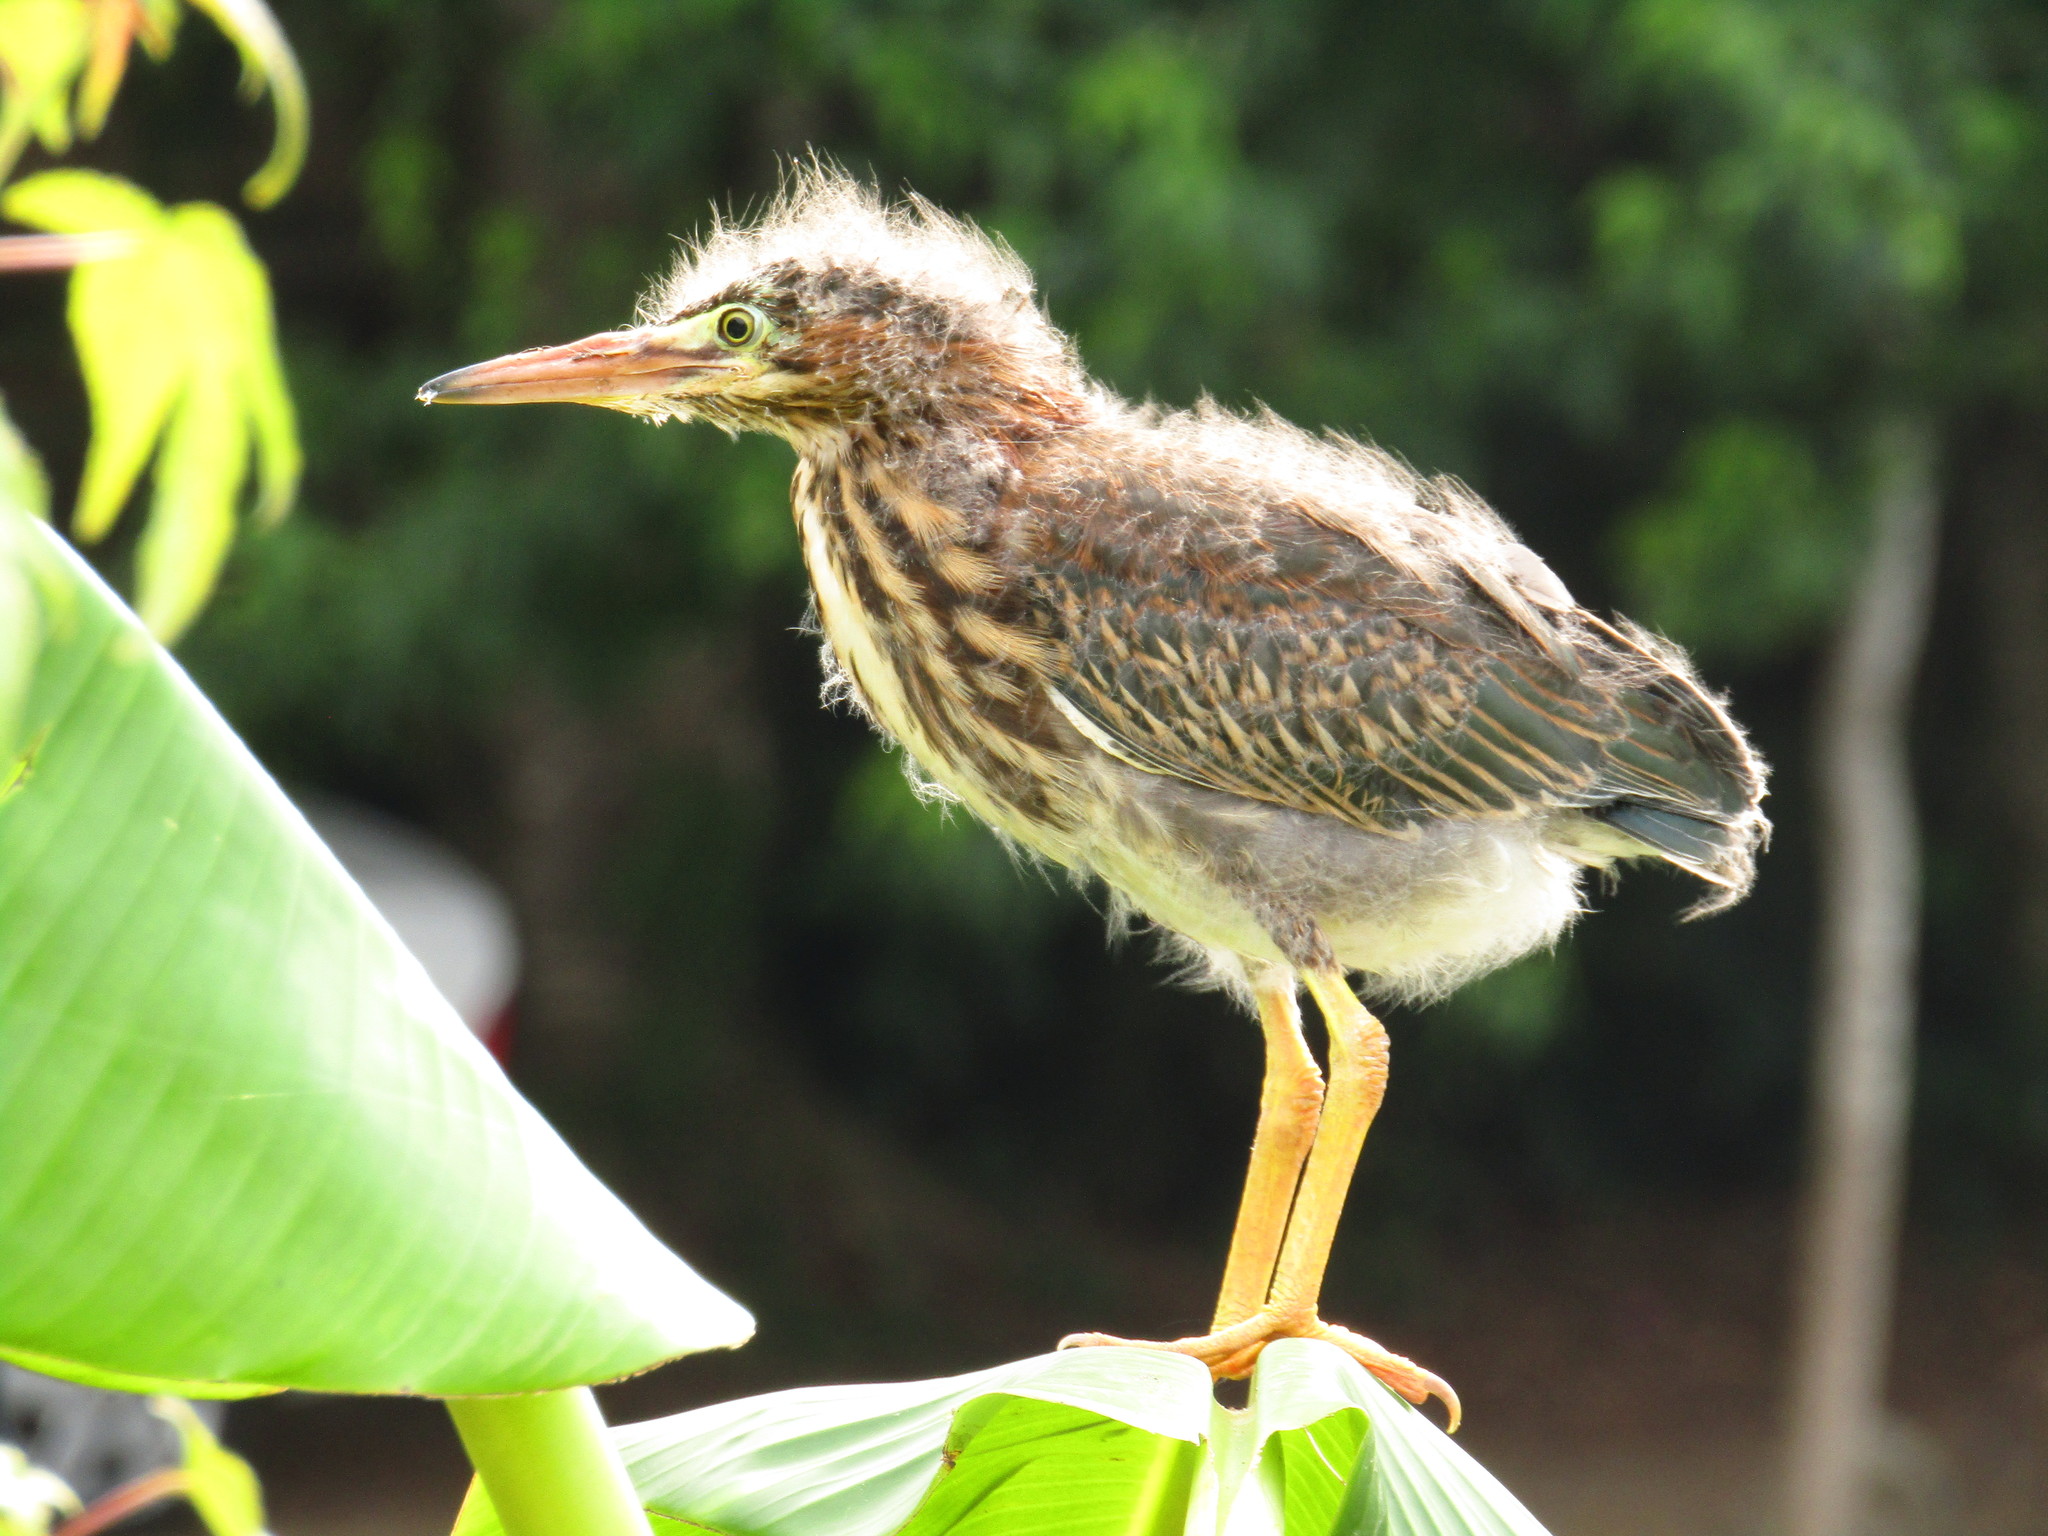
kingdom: Animalia
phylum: Chordata
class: Aves
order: Pelecaniformes
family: Ardeidae
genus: Butorides
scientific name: Butorides virescens
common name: Green heron
